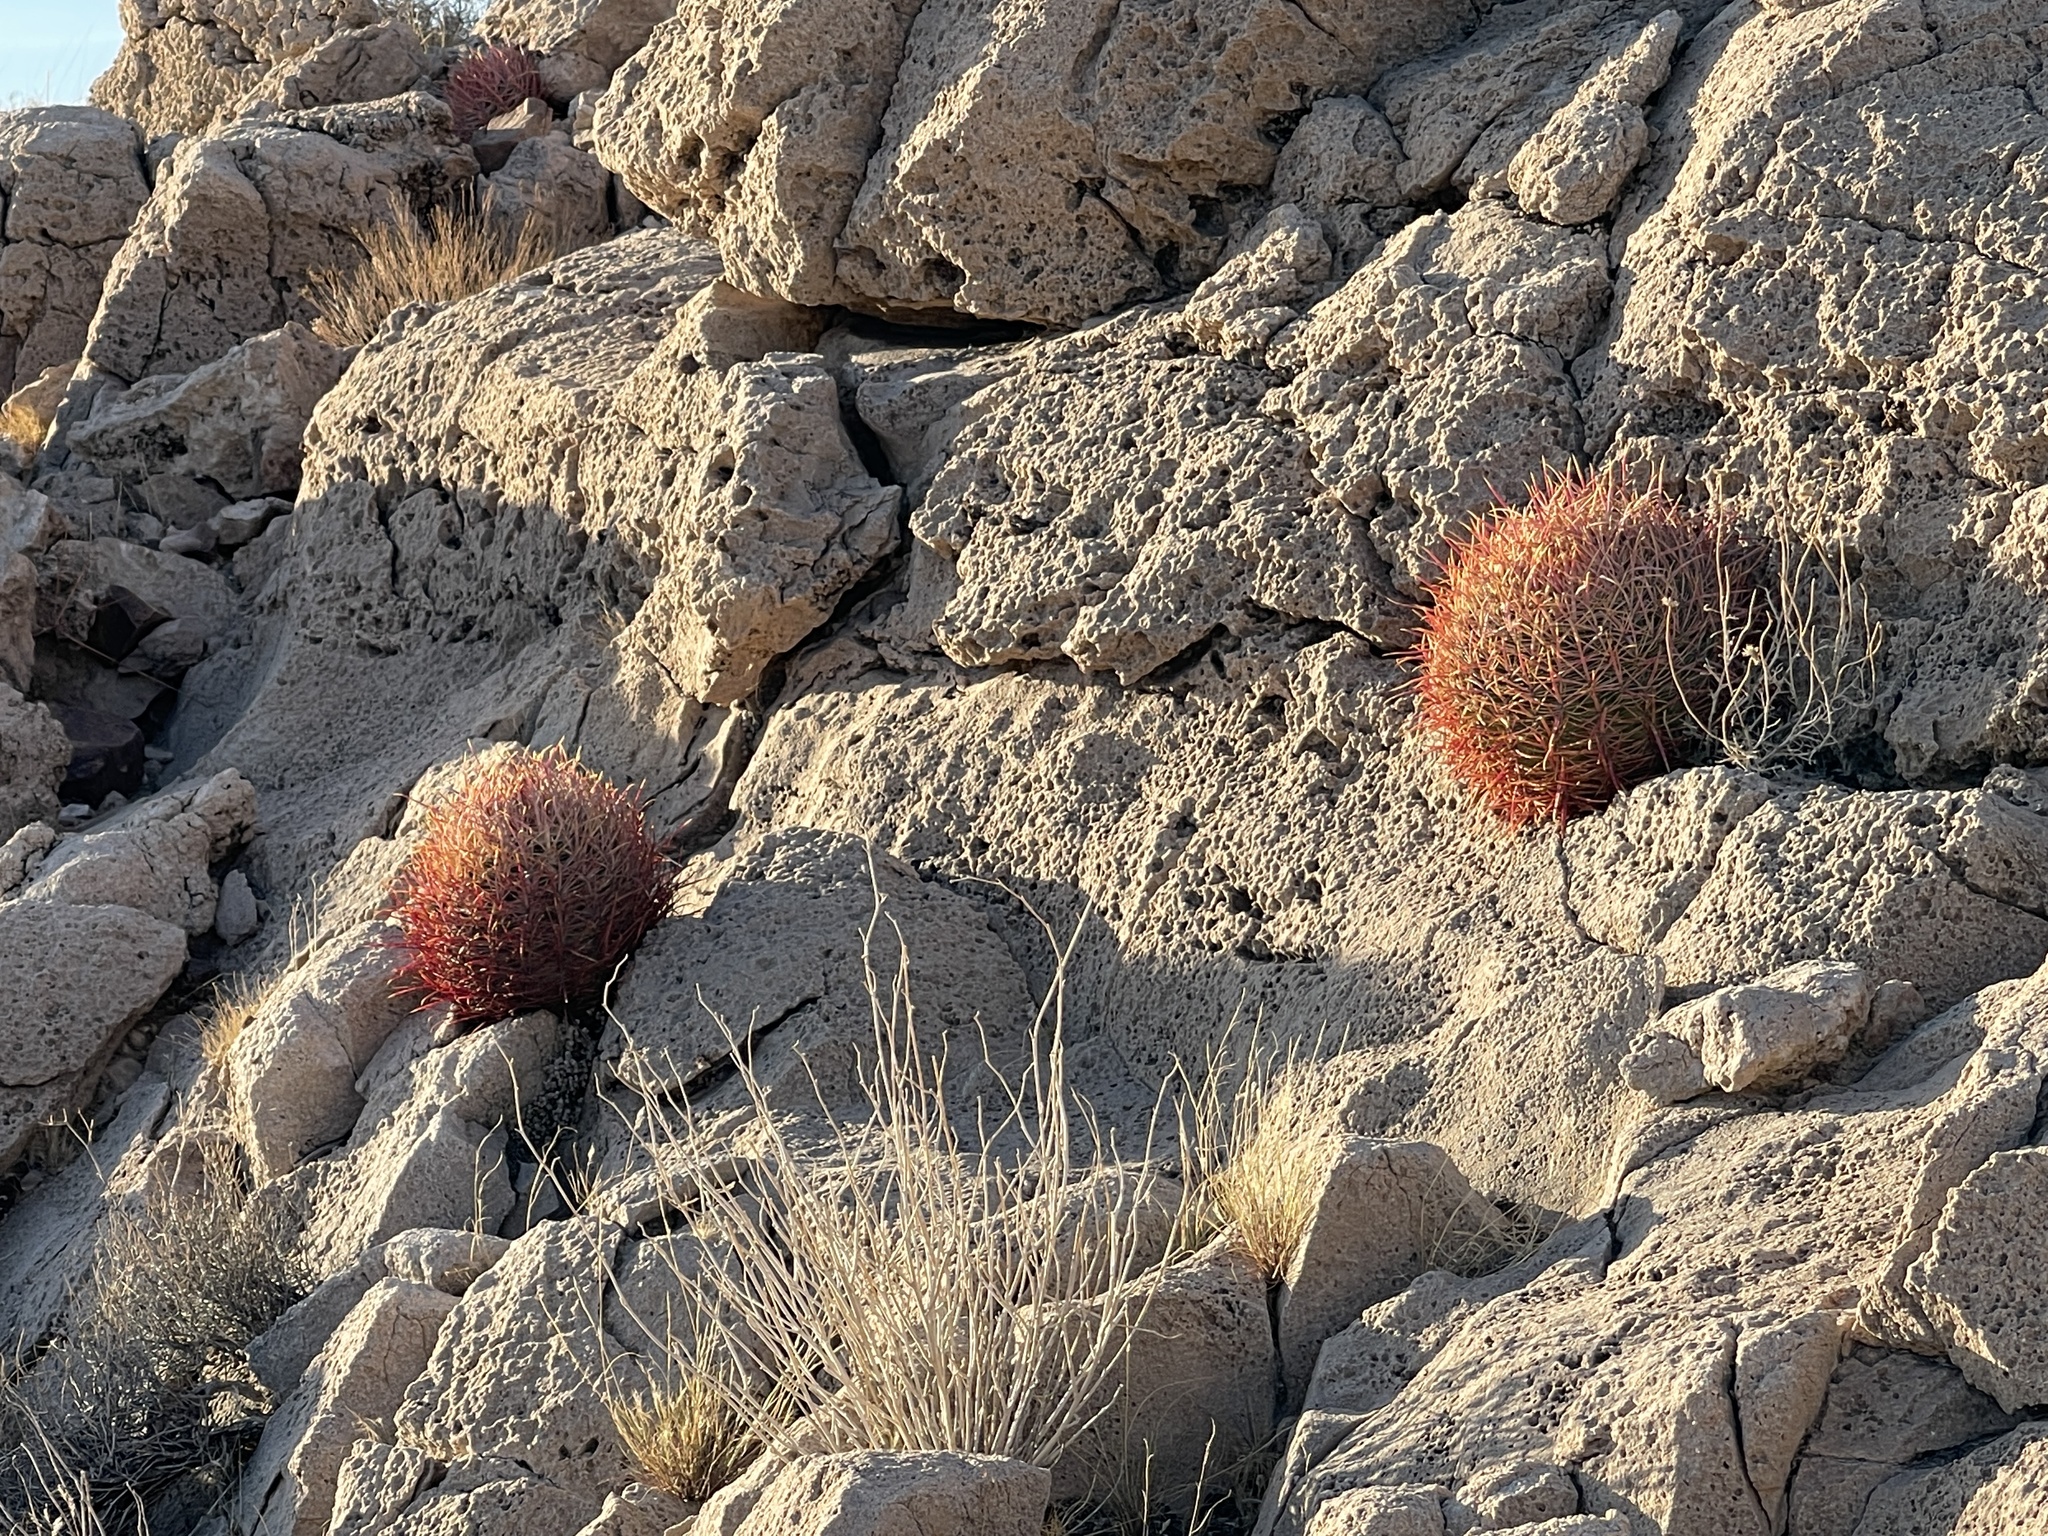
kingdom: Plantae
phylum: Tracheophyta
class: Magnoliopsida
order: Caryophyllales
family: Cactaceae
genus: Ferocactus
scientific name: Ferocactus cylindraceus
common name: California barrel cactus
